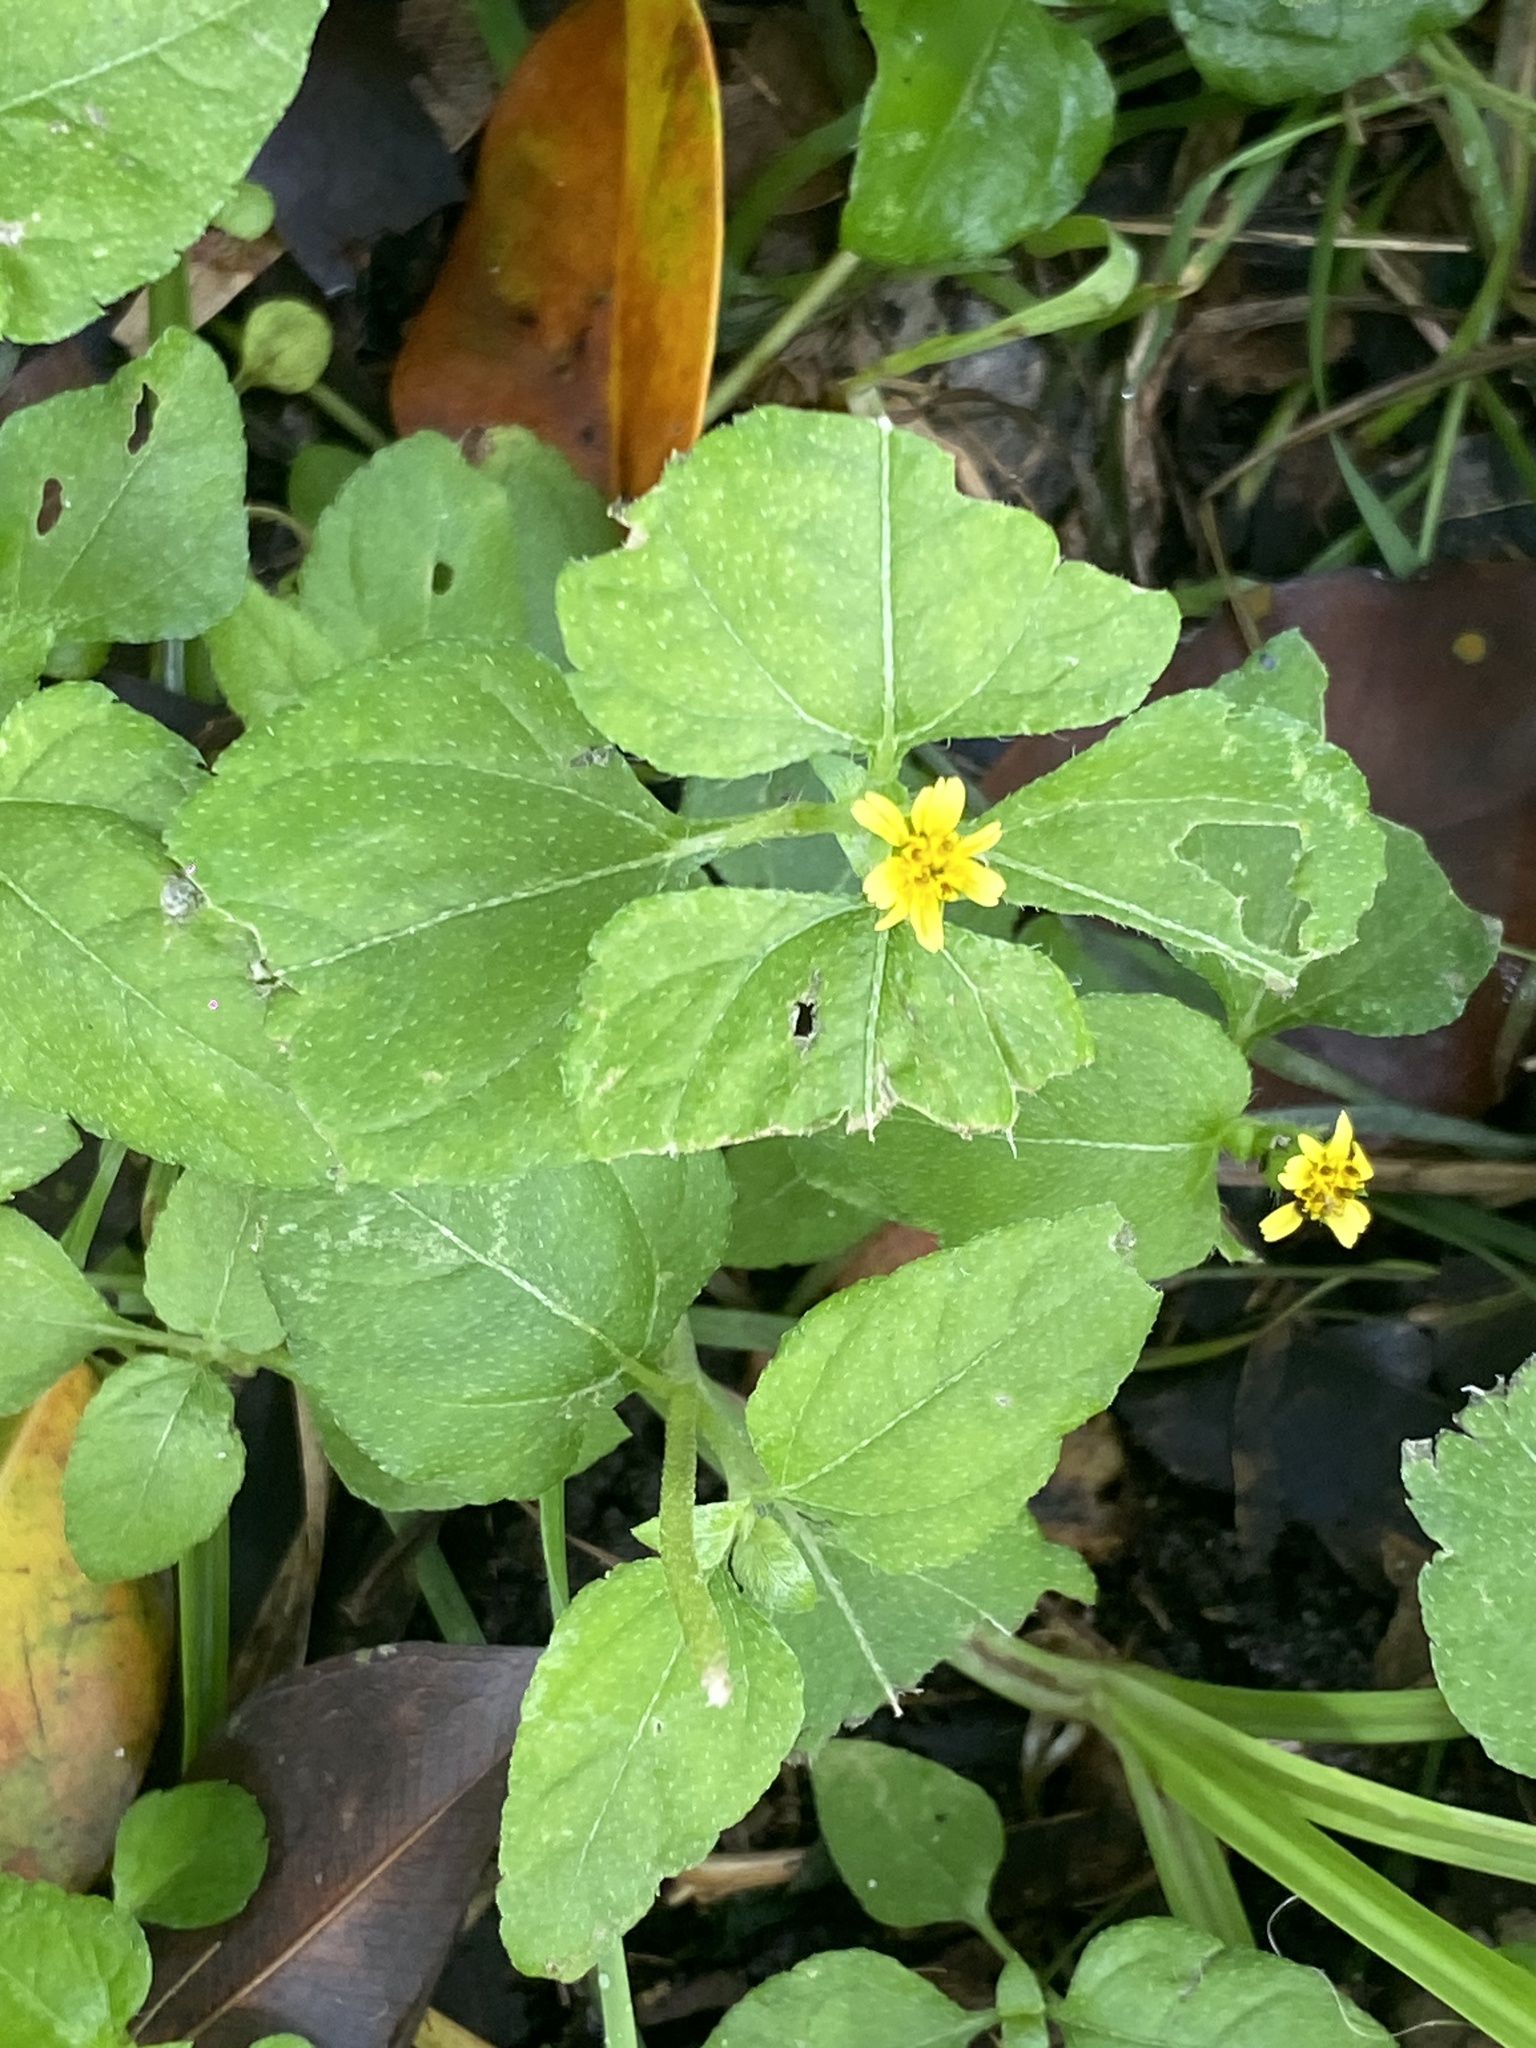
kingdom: Plantae
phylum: Tracheophyta
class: Magnoliopsida
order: Asterales
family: Asteraceae
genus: Calyptocarpus
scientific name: Calyptocarpus vialis
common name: Straggler daisy
